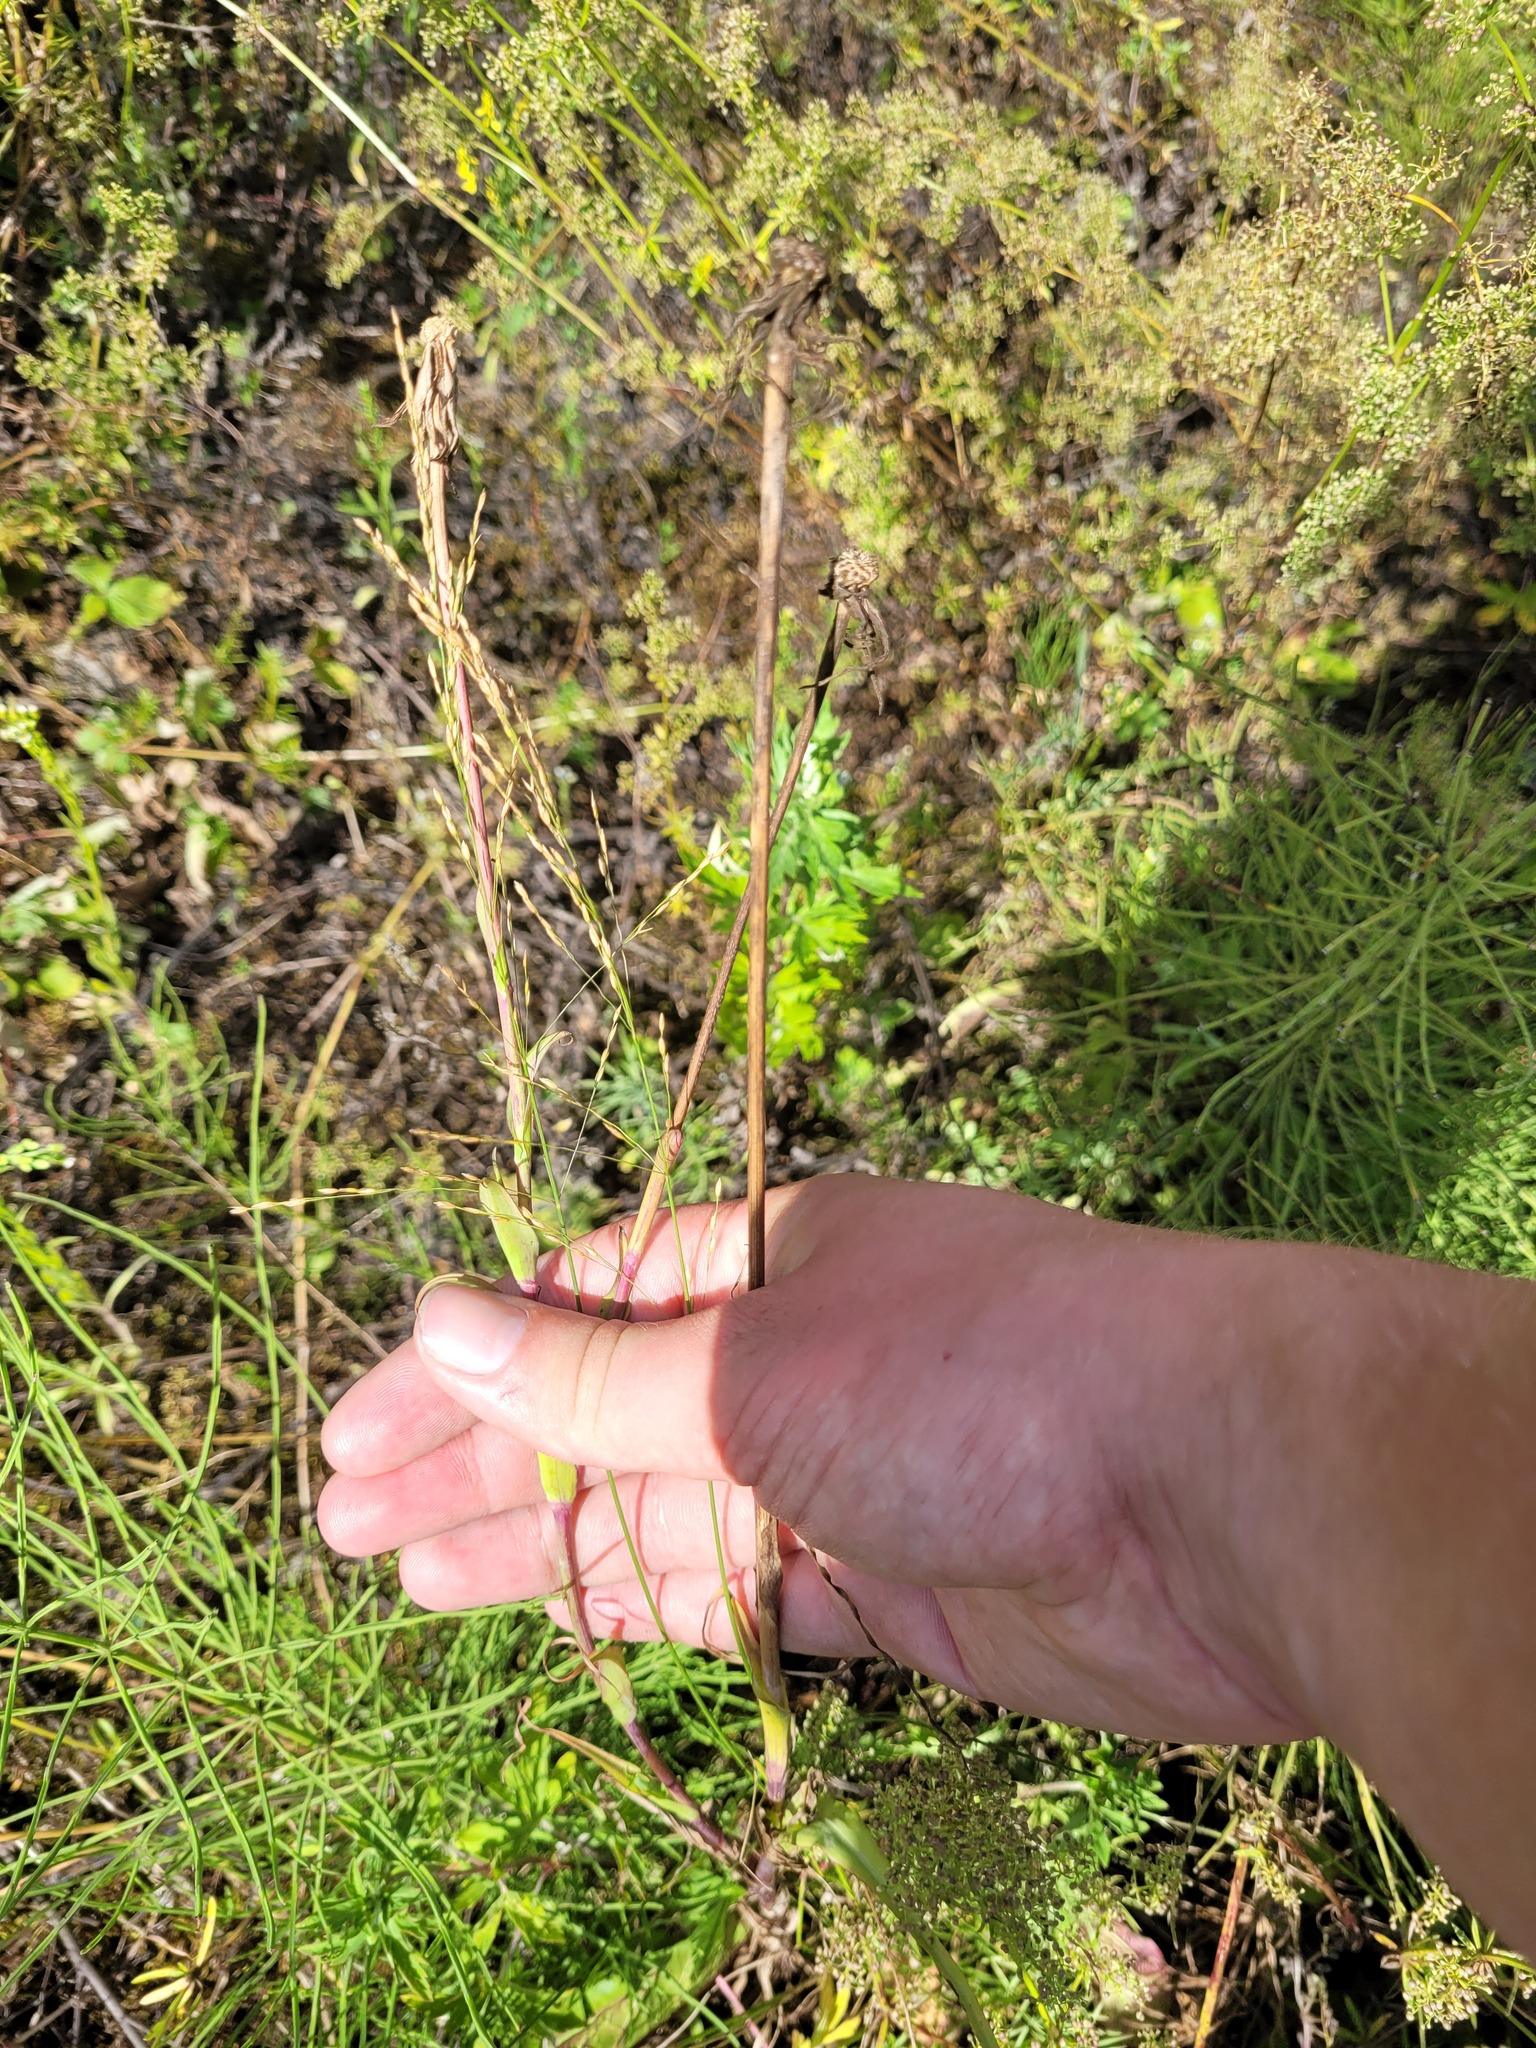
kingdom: Plantae
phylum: Tracheophyta
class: Magnoliopsida
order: Asterales
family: Asteraceae
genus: Tragopogon
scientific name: Tragopogon dubius
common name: Yellow salsify
